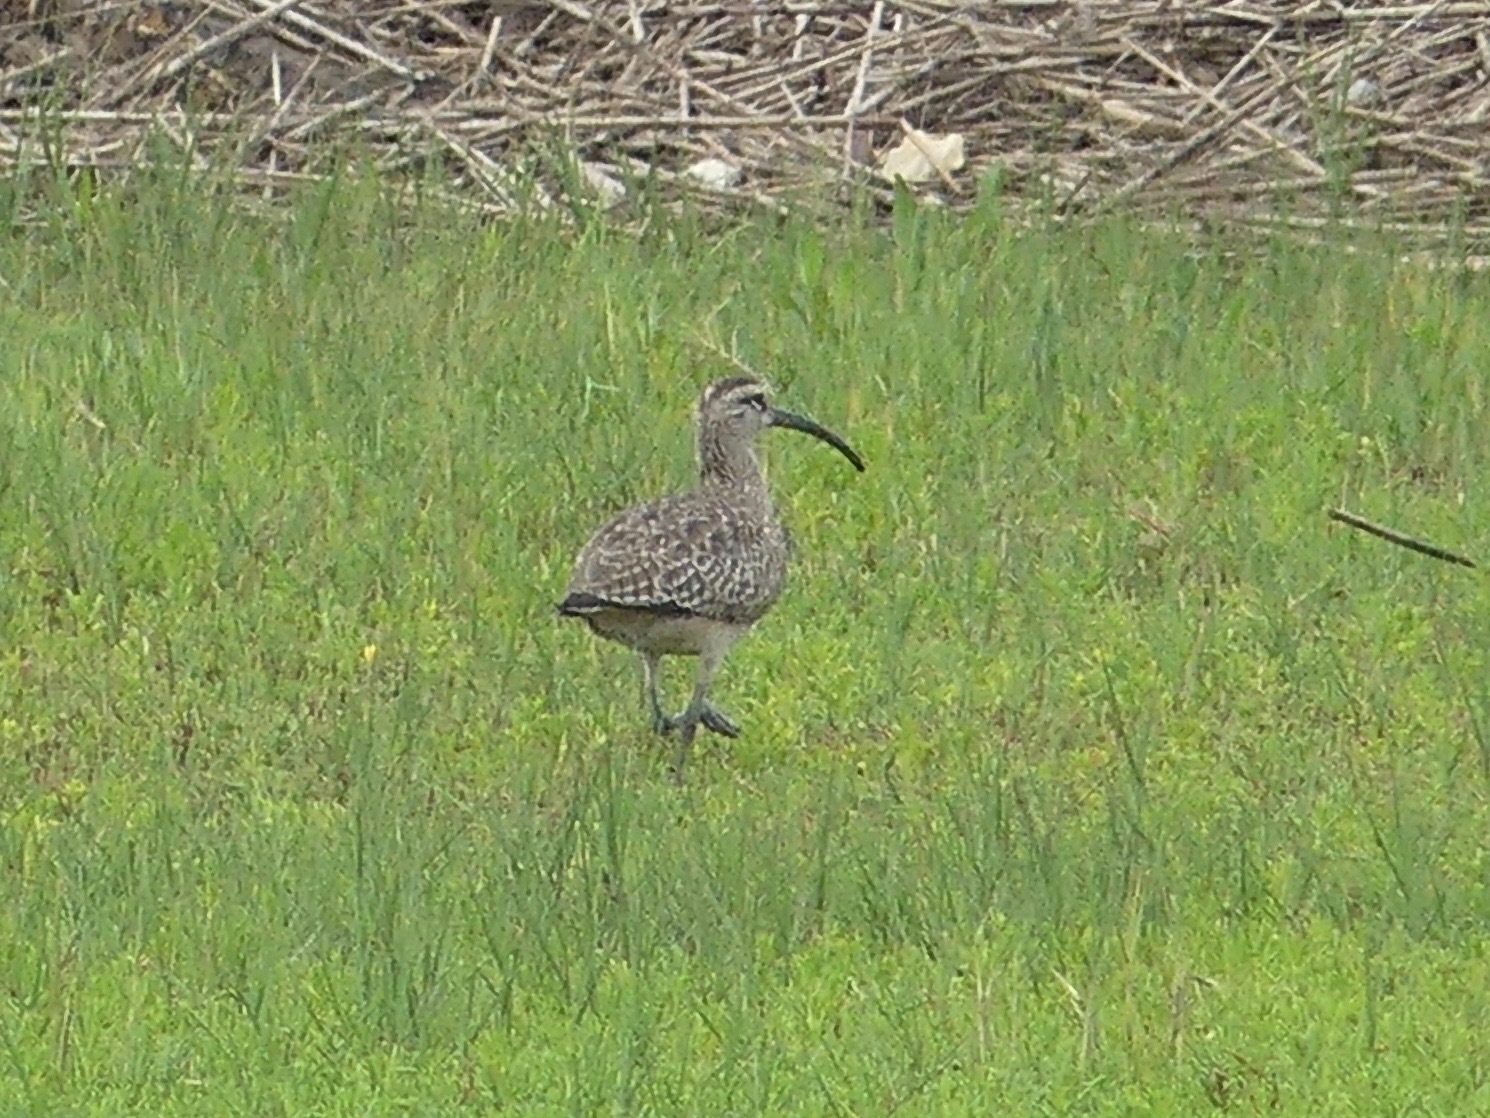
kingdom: Animalia
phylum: Chordata
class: Aves
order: Charadriiformes
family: Scolopacidae
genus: Numenius
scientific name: Numenius phaeopus
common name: Whimbrel
